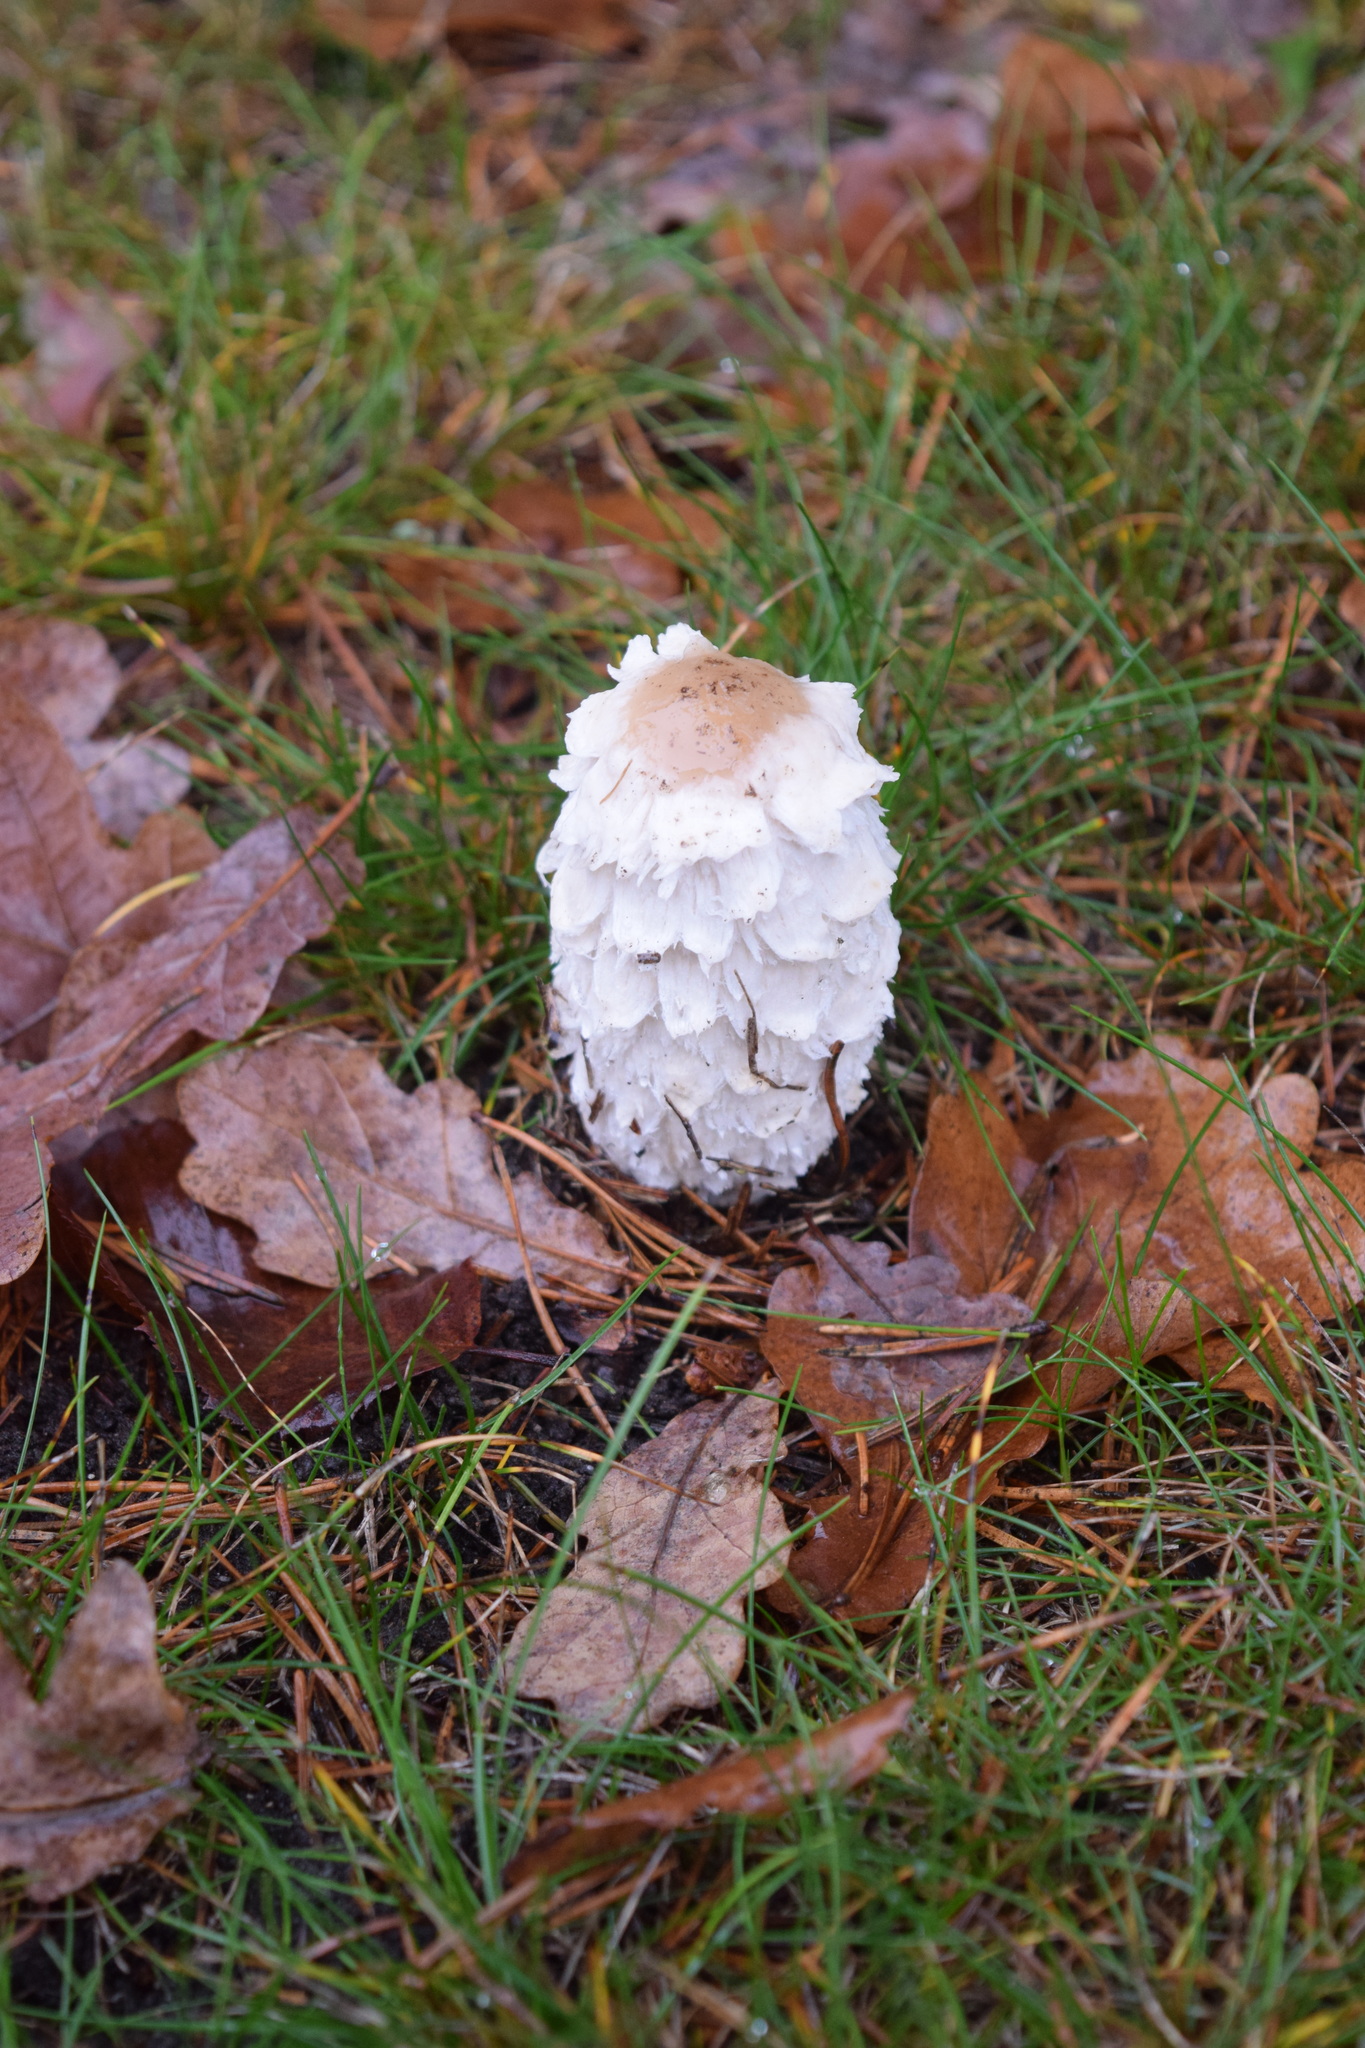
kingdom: Fungi
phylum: Basidiomycota
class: Agaricomycetes
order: Agaricales
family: Agaricaceae
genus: Coprinus
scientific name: Coprinus comatus
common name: Lawyer's wig
